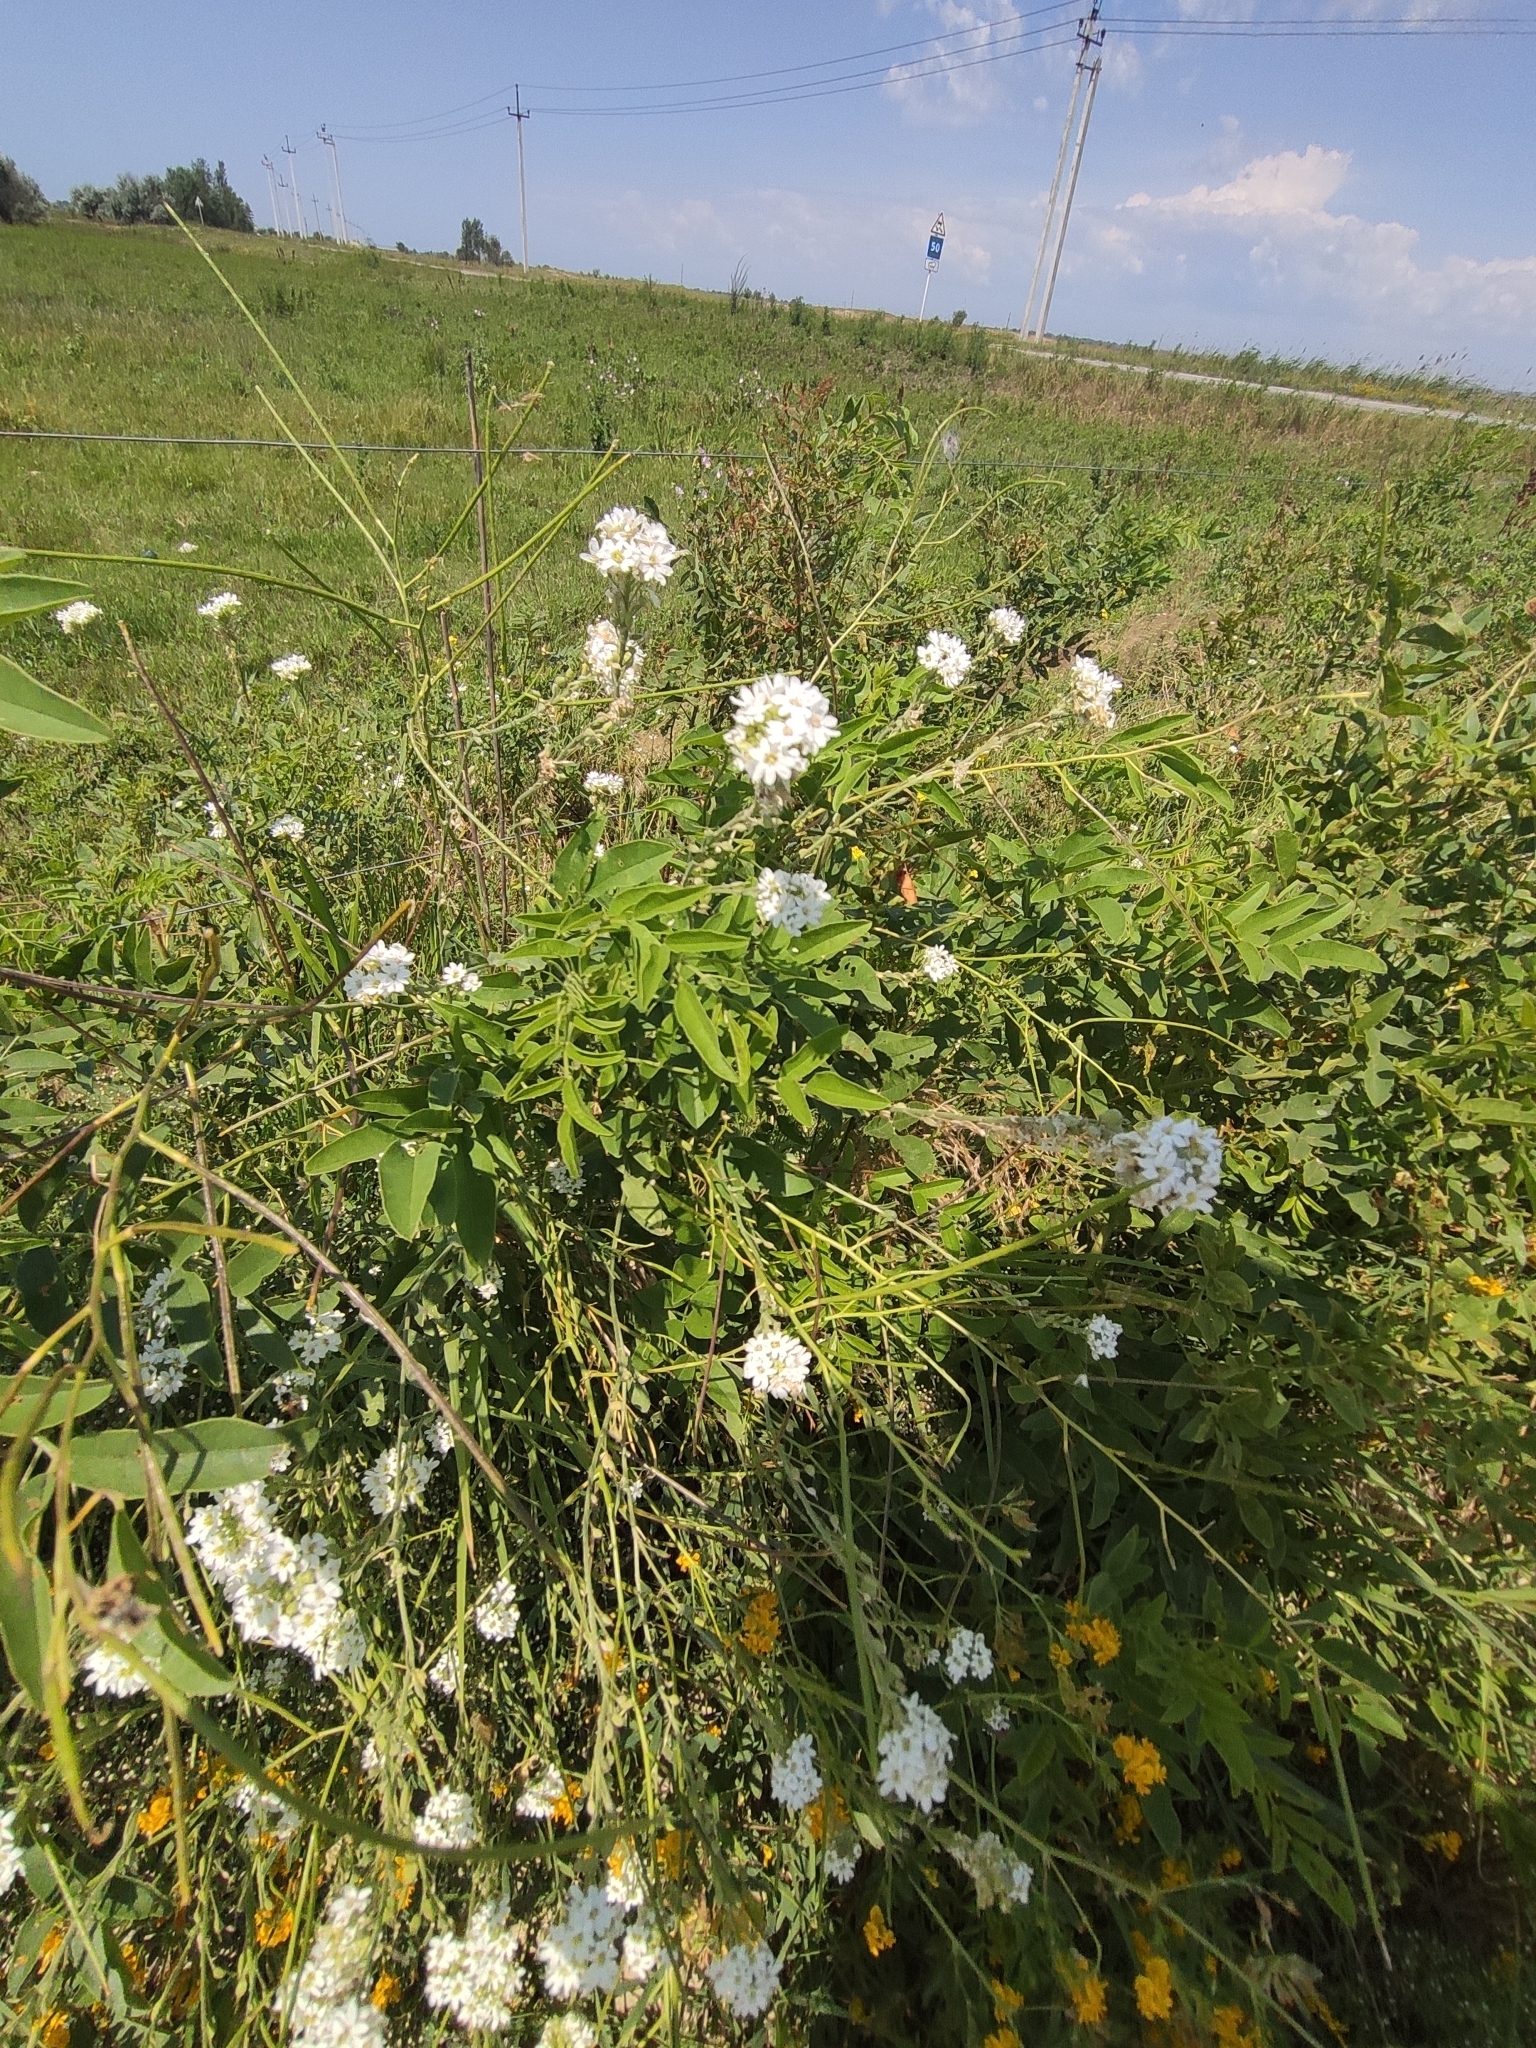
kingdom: Plantae
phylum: Tracheophyta
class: Magnoliopsida
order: Brassicales
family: Brassicaceae
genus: Berteroa
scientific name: Berteroa incana
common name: Hoary alison
